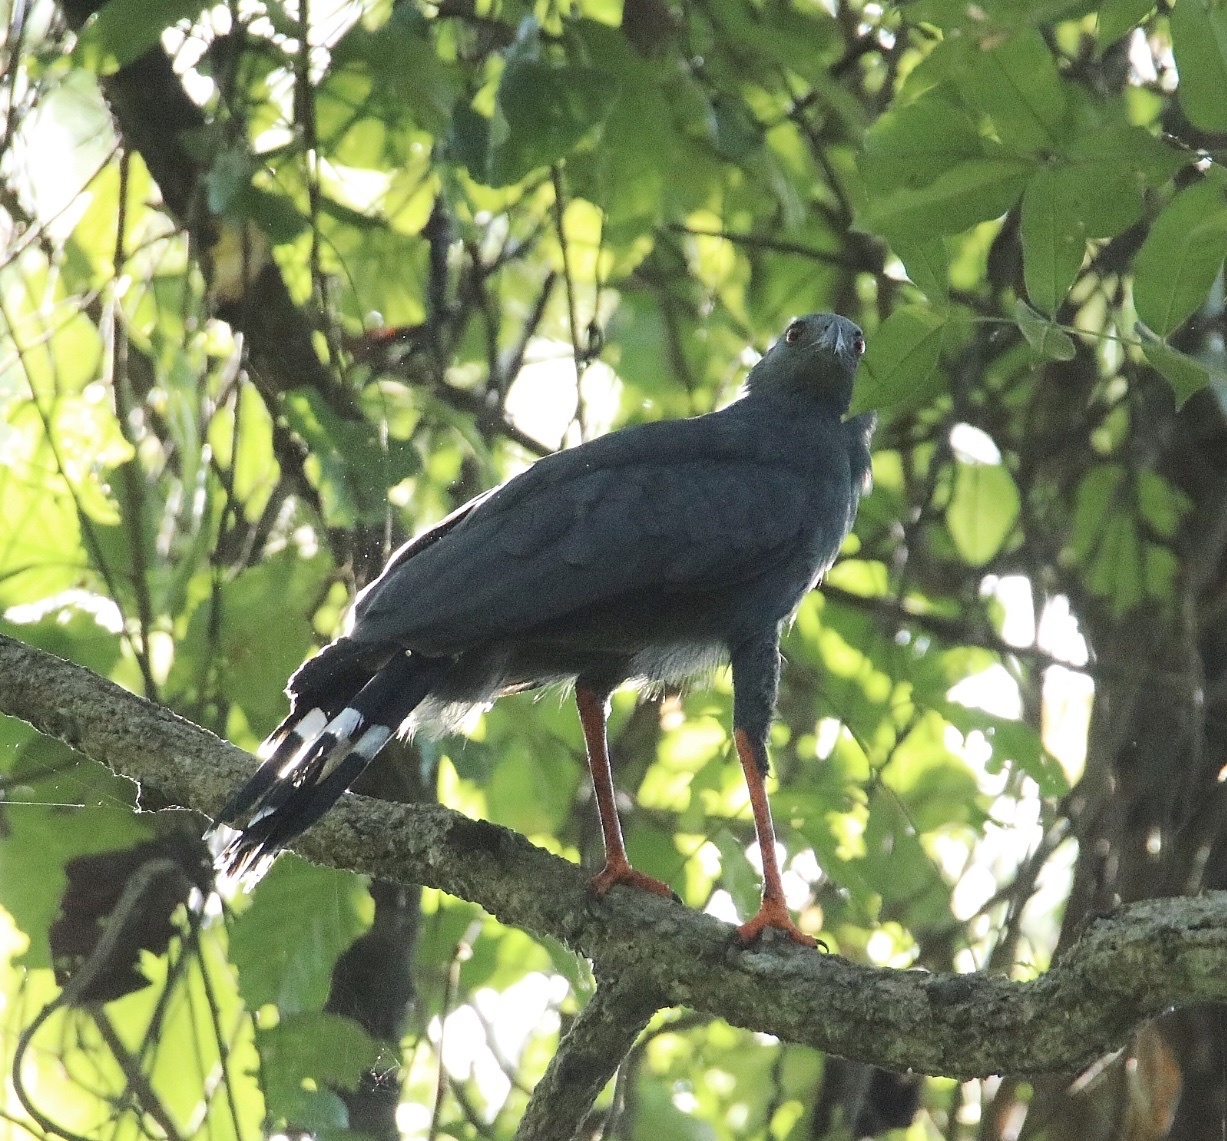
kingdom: Animalia
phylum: Chordata
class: Aves
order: Accipitriformes
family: Accipitridae
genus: Geranospiza
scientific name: Geranospiza caerulescens
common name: Crane hawk
